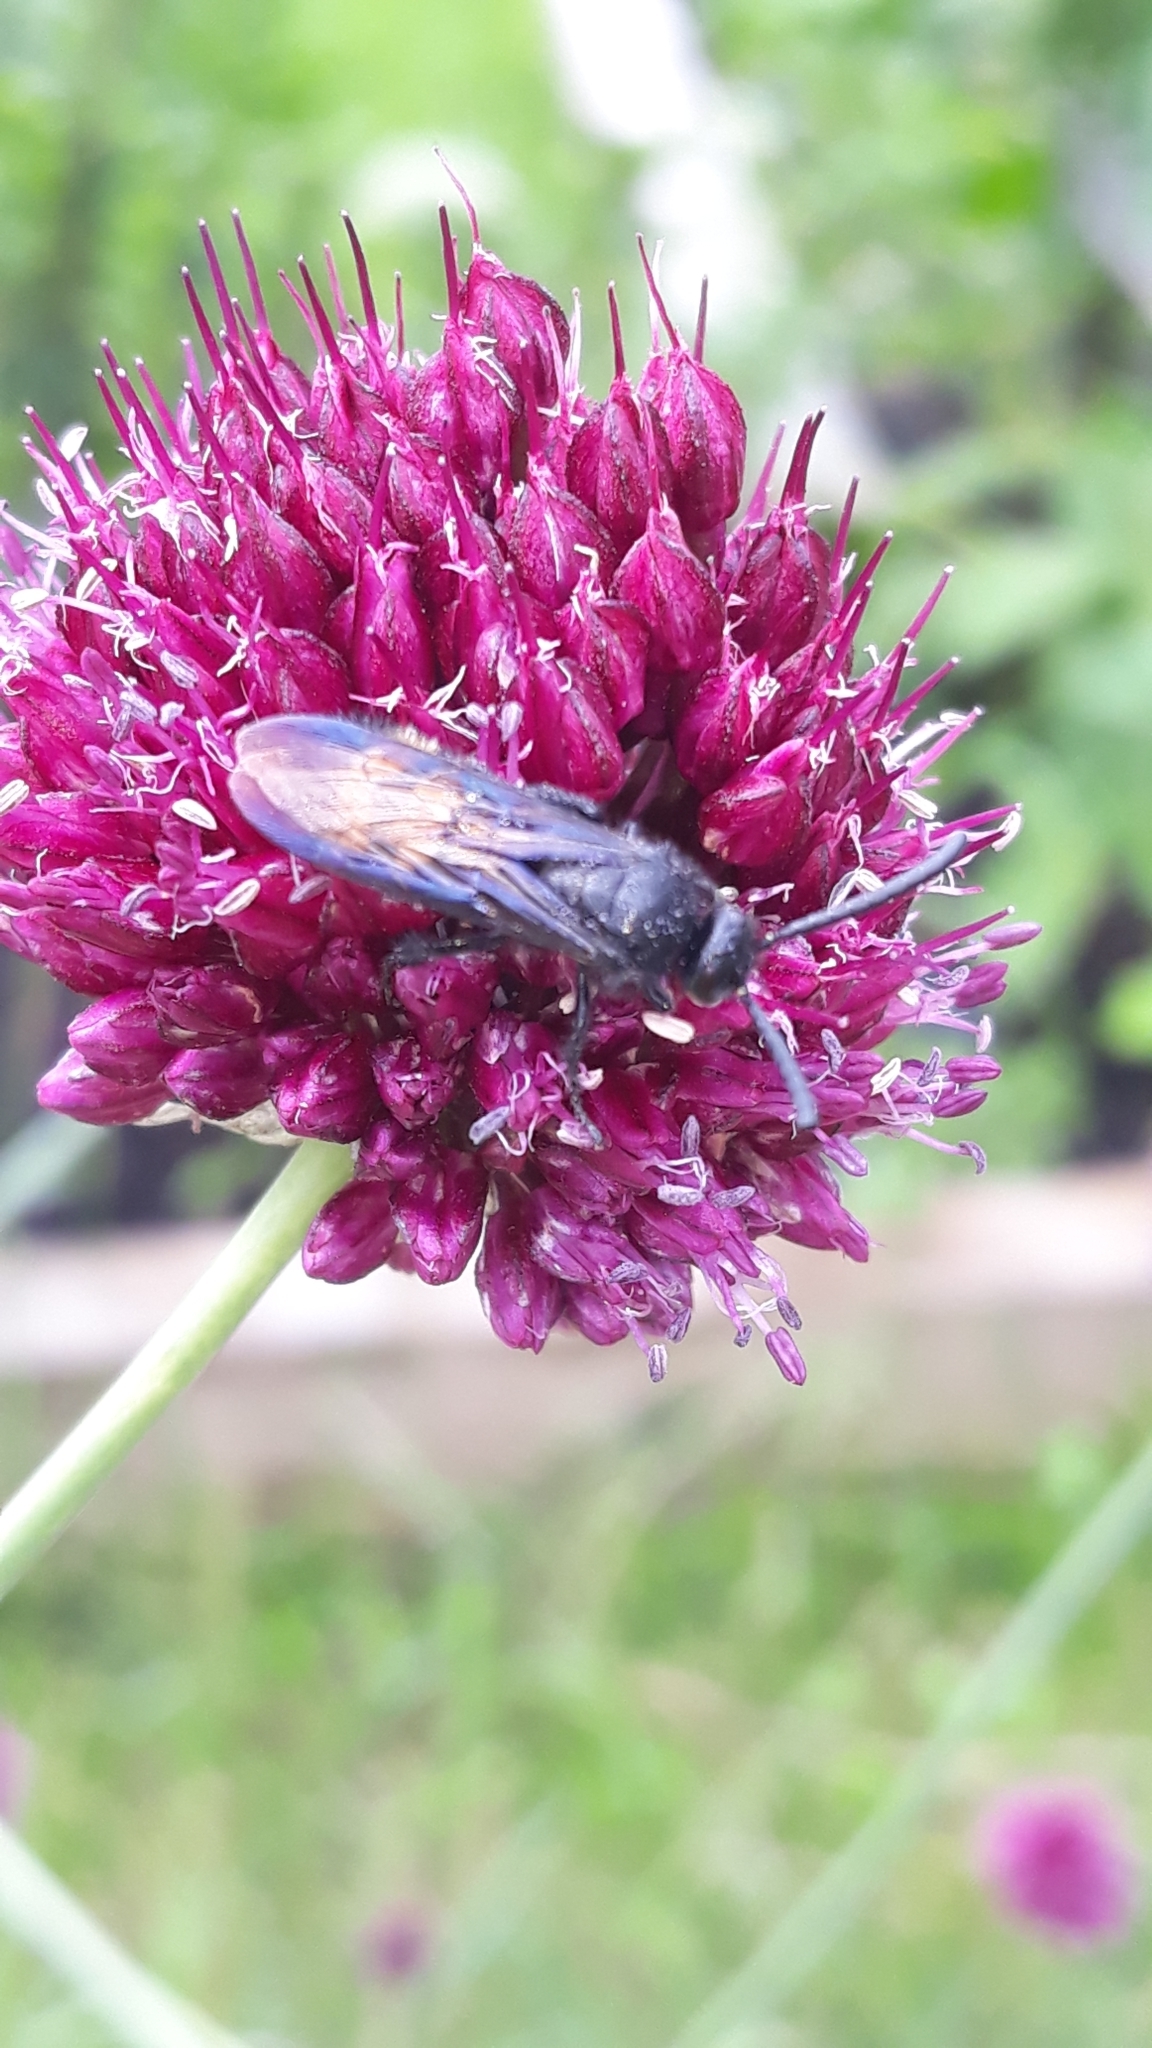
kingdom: Animalia
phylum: Arthropoda
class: Insecta
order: Hymenoptera
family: Scoliidae
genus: Scolia
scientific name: Scolia hirta
